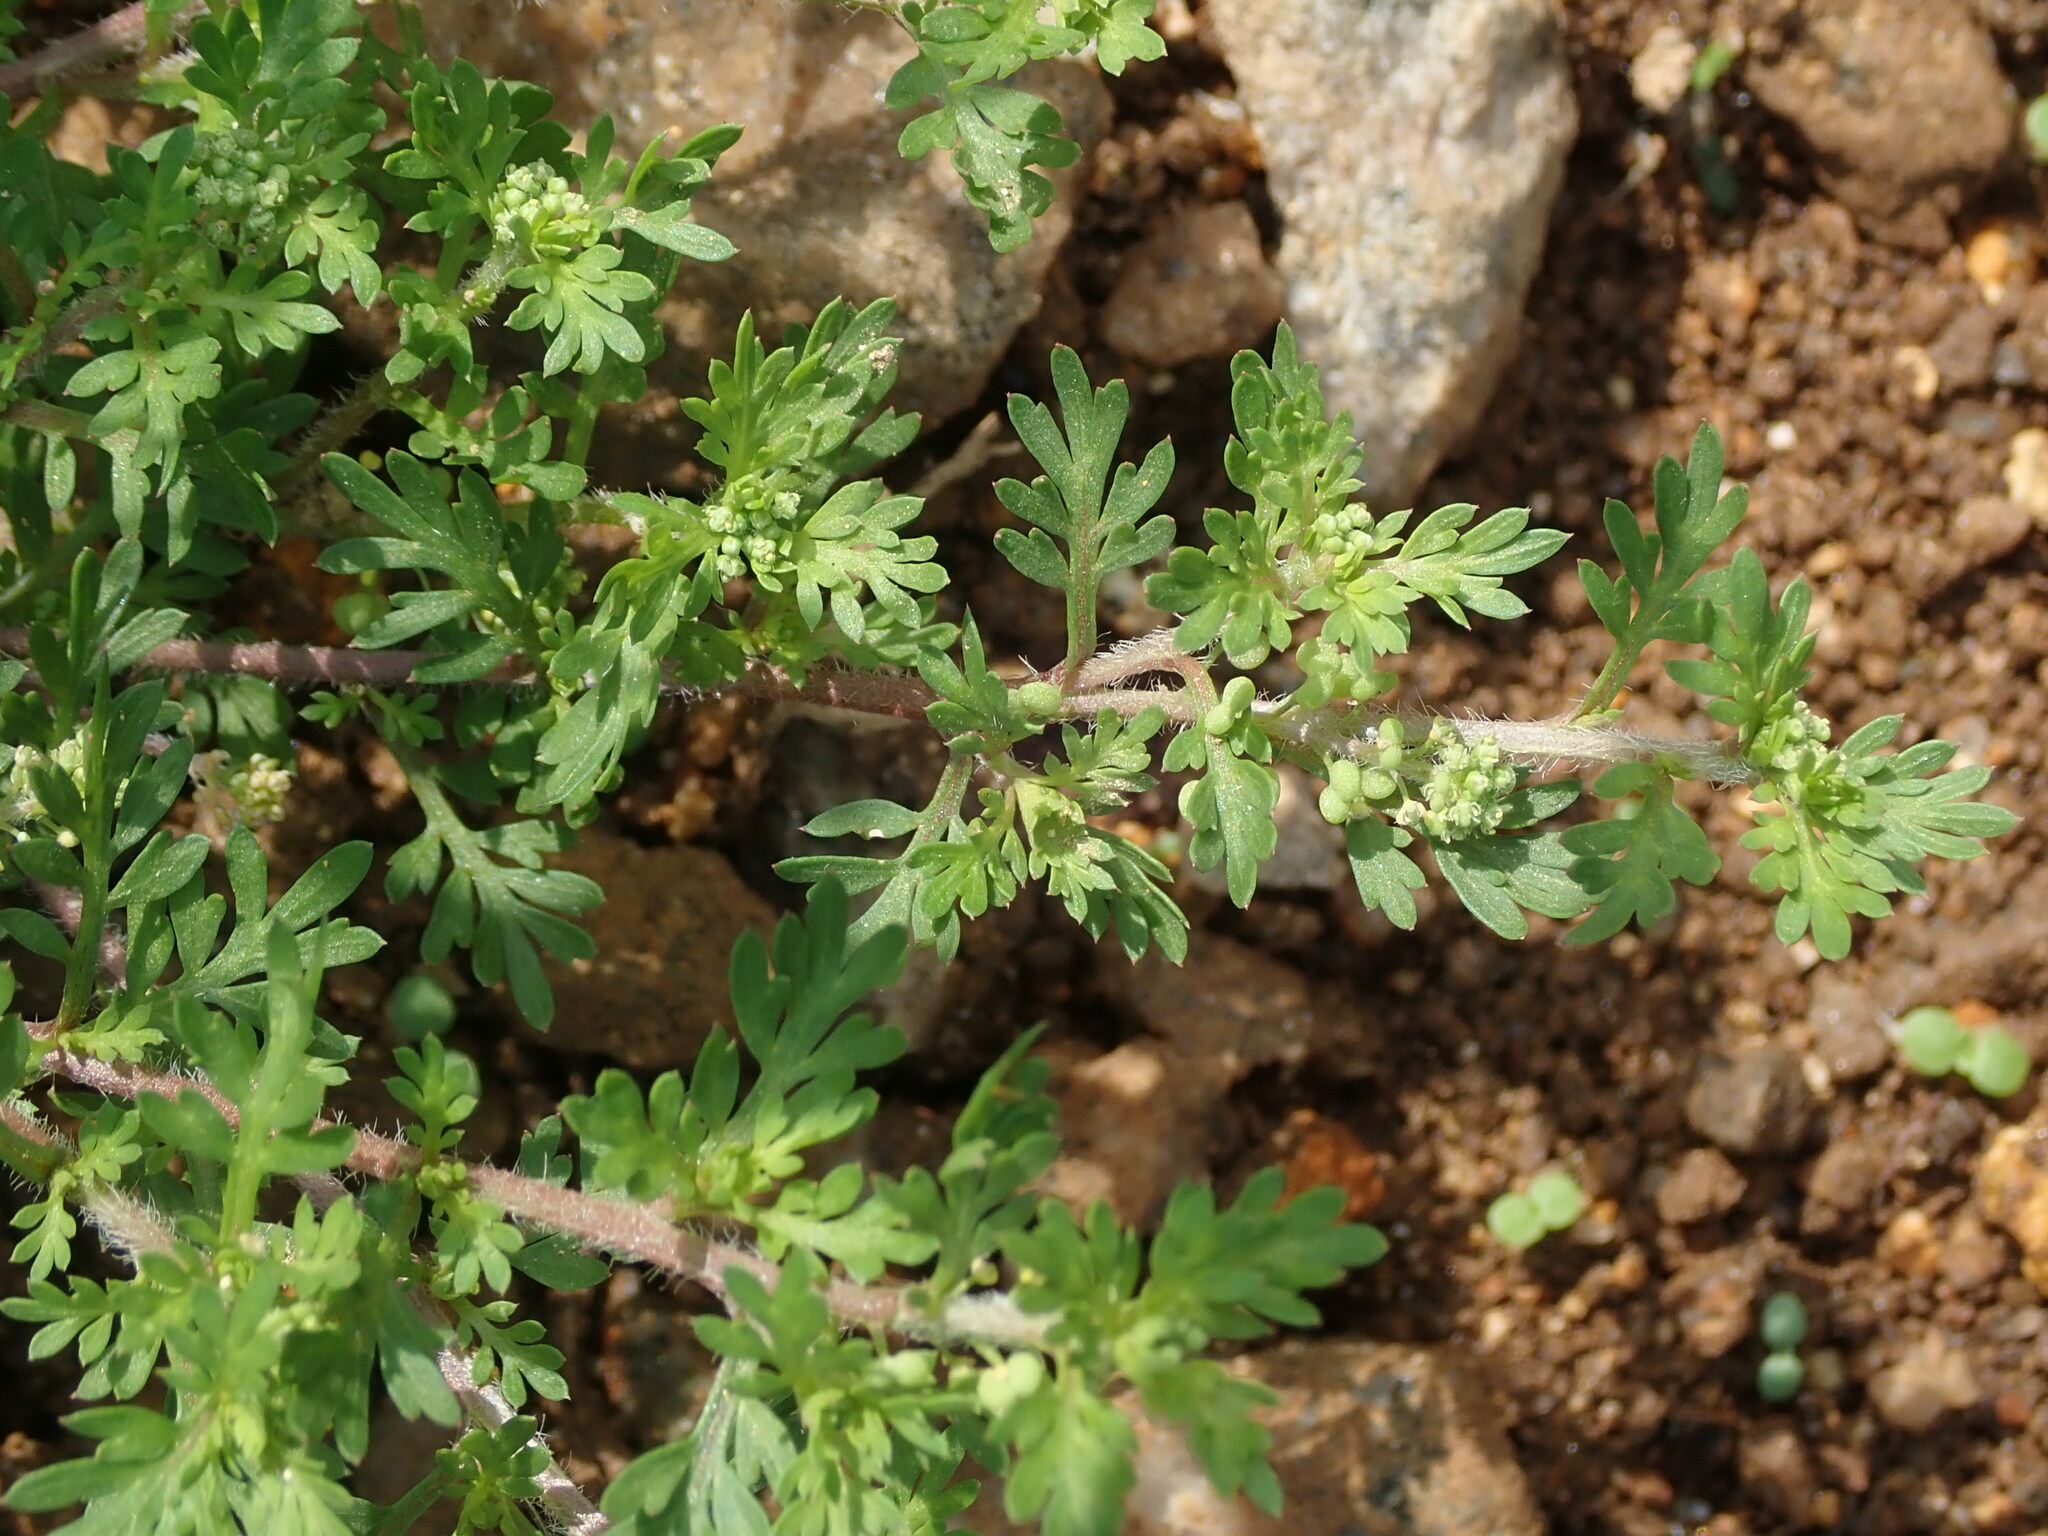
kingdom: Plantae
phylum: Tracheophyta
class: Magnoliopsida
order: Brassicales
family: Brassicaceae
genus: Lepidium
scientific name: Lepidium didymum
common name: Lesser swinecress
